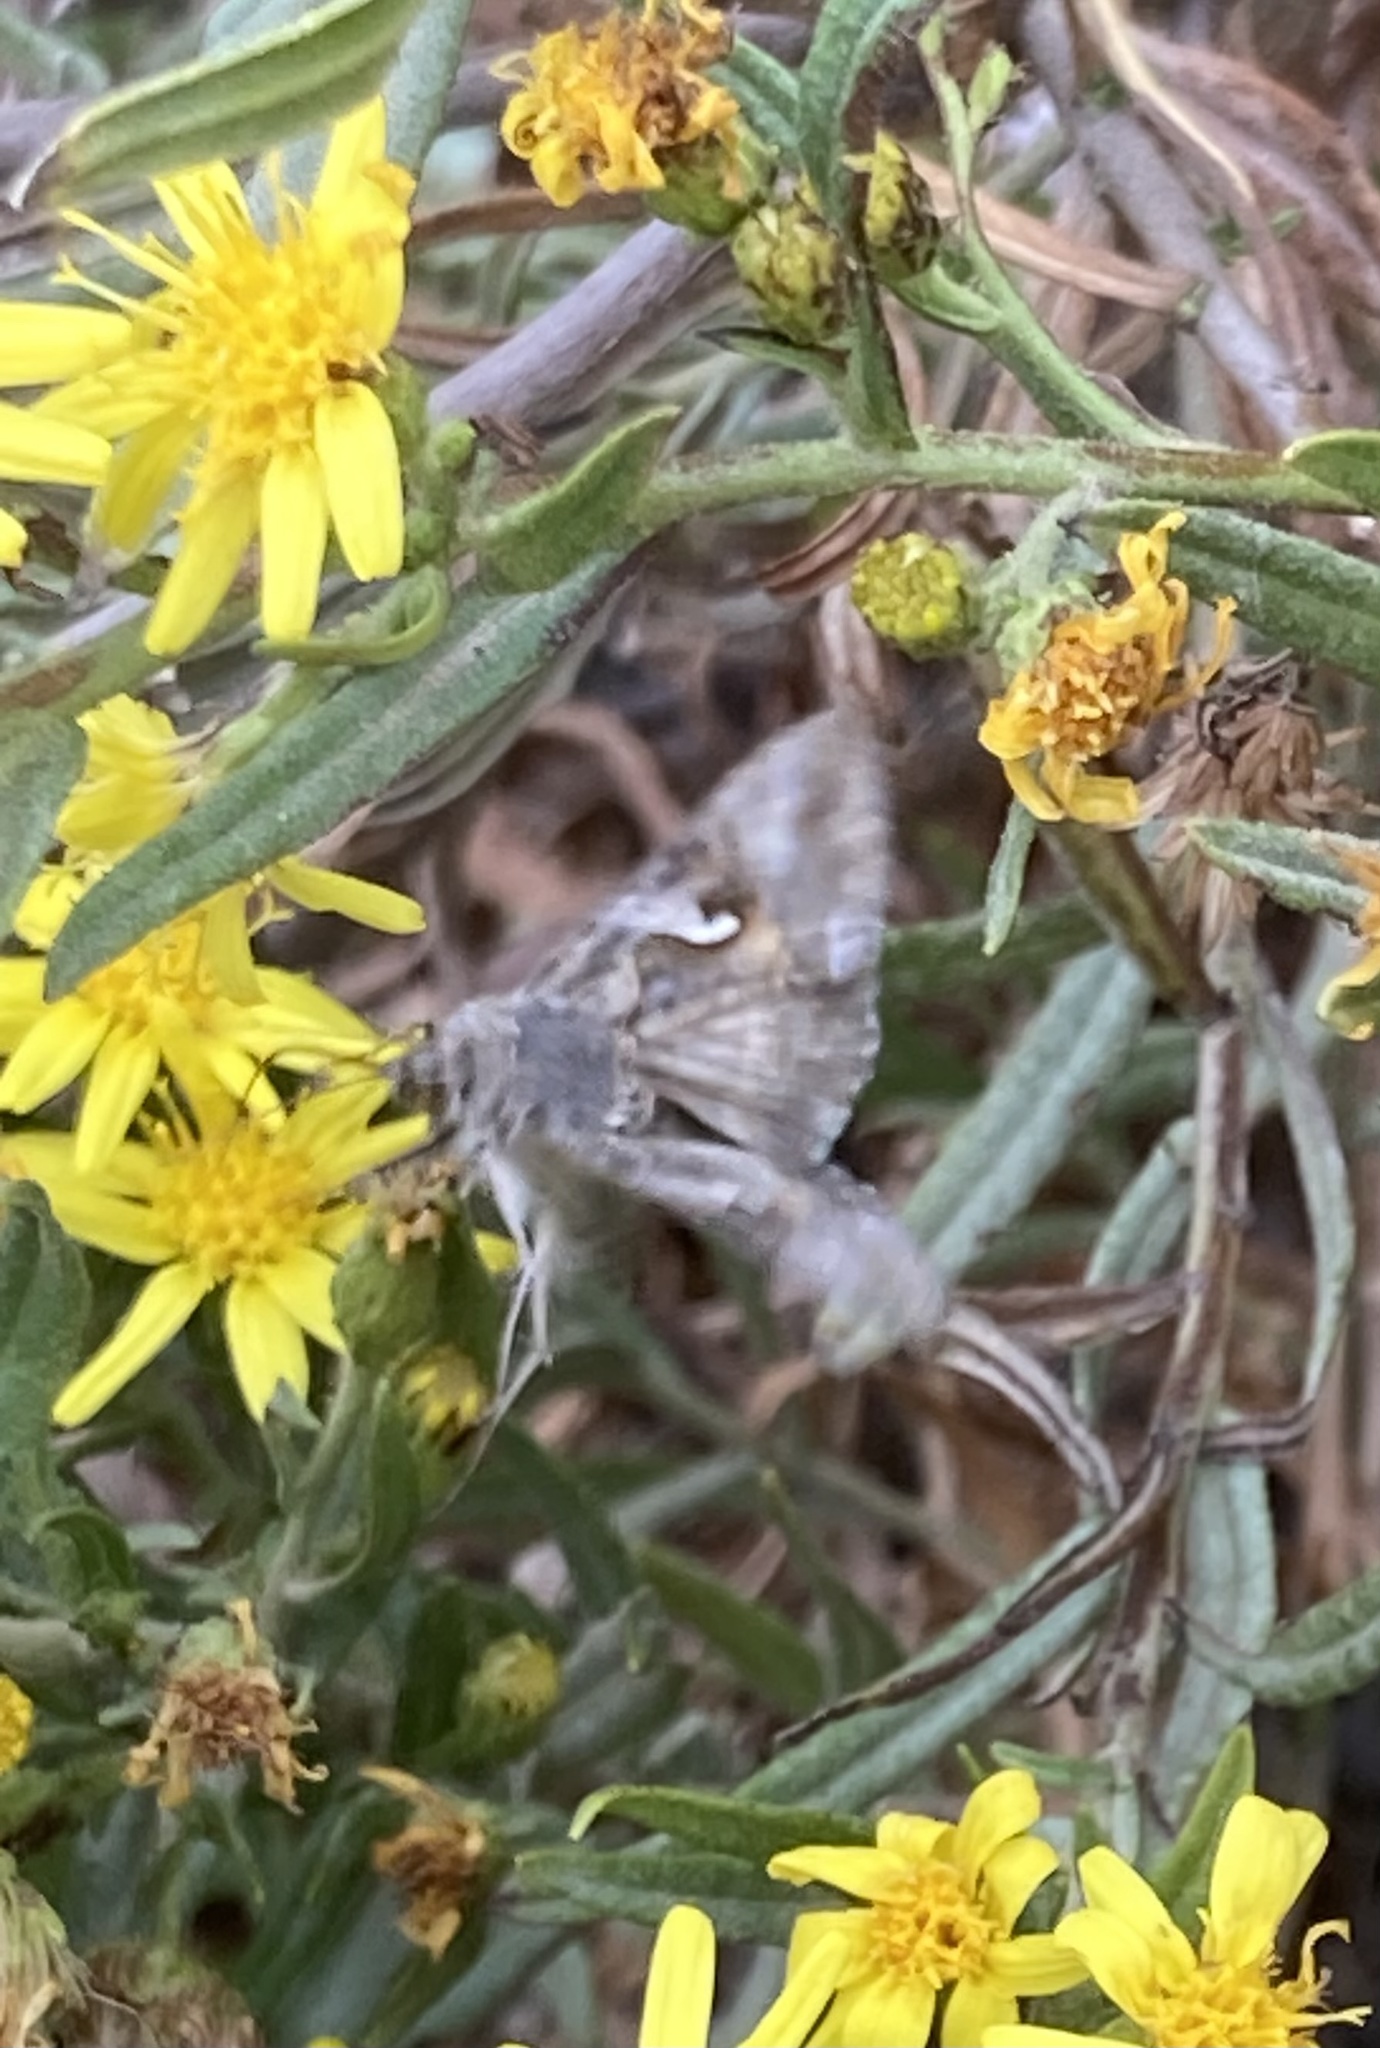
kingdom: Animalia
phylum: Arthropoda
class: Insecta
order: Lepidoptera
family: Noctuidae
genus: Autographa
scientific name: Autographa gamma
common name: Silver y
